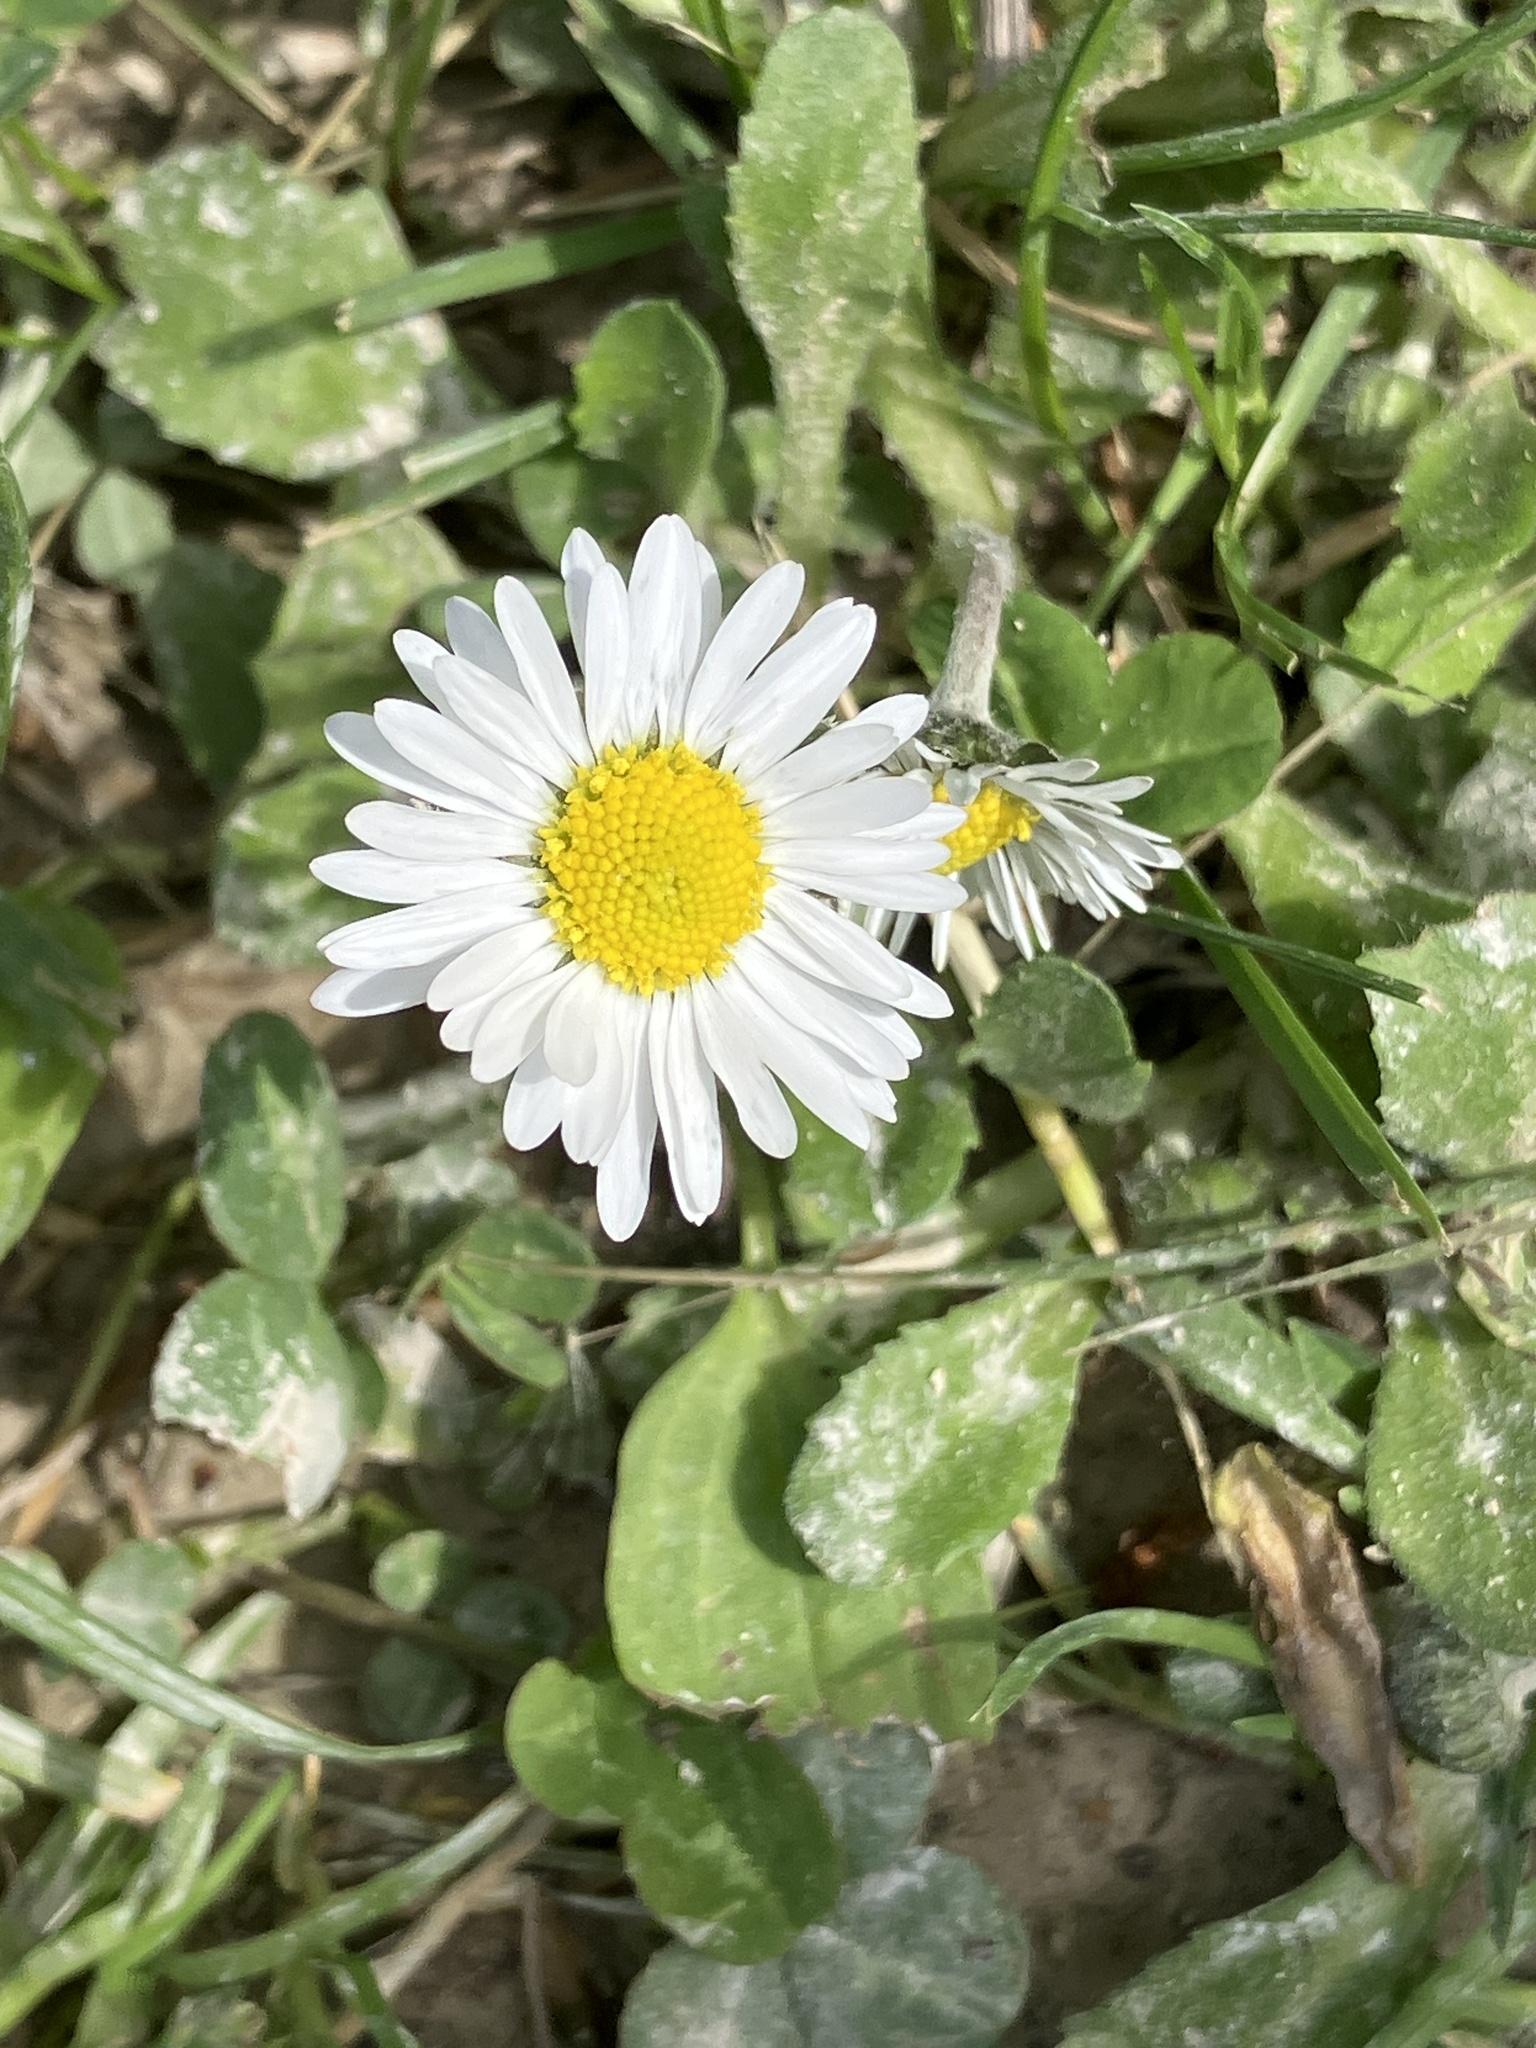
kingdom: Plantae
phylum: Tracheophyta
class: Magnoliopsida
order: Asterales
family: Asteraceae
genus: Bellis
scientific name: Bellis perennis
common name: Lawndaisy
